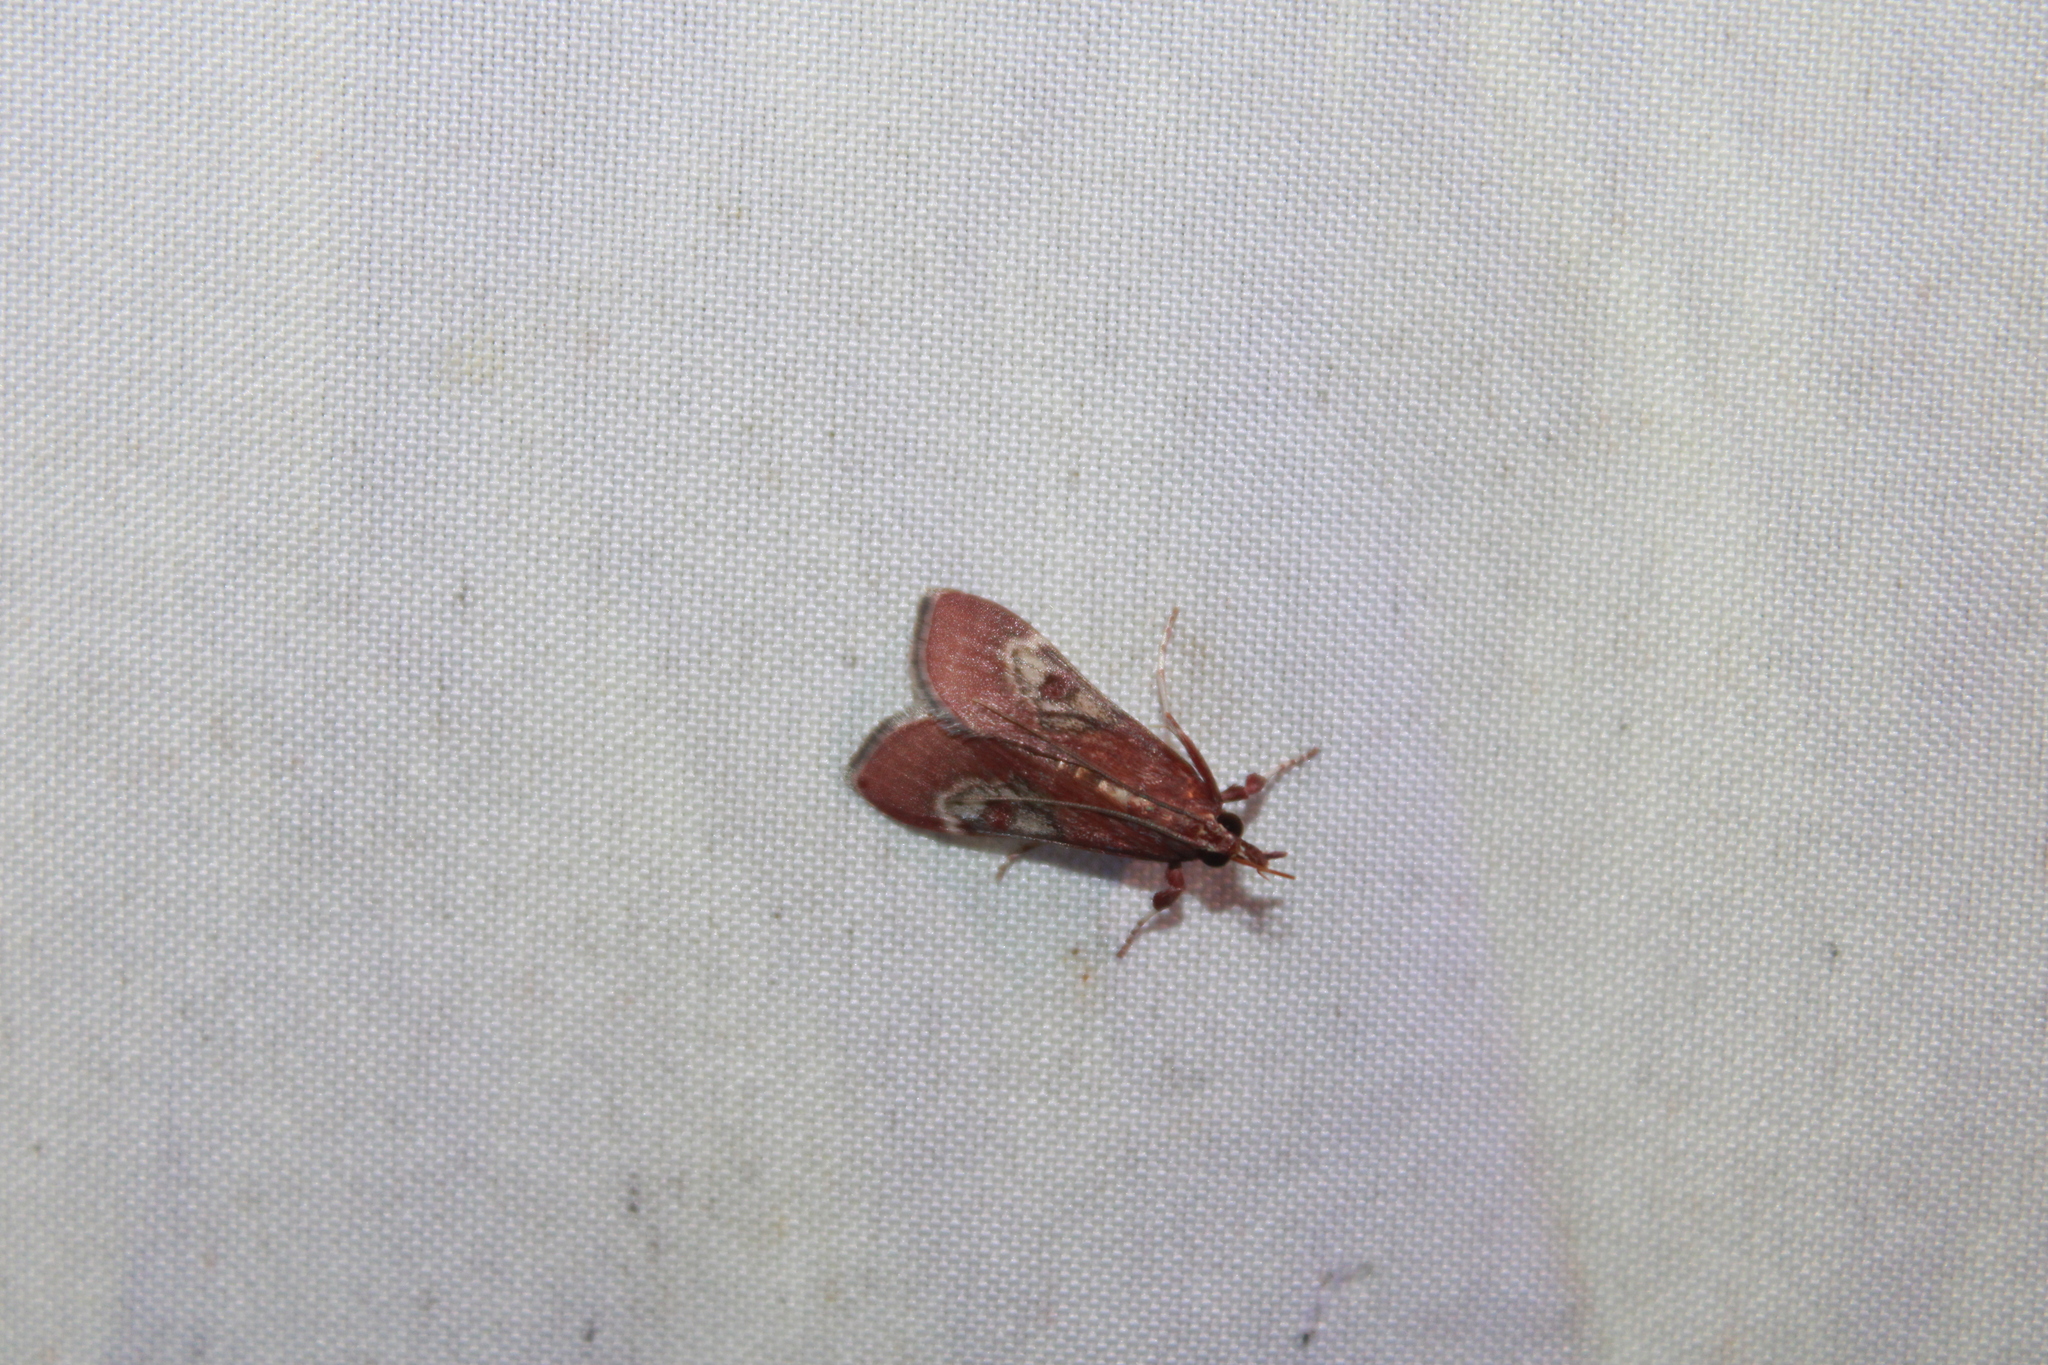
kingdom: Animalia
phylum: Arthropoda
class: Insecta
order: Lepidoptera
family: Crambidae
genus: Omiodes
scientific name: Omiodes stigmosalis
